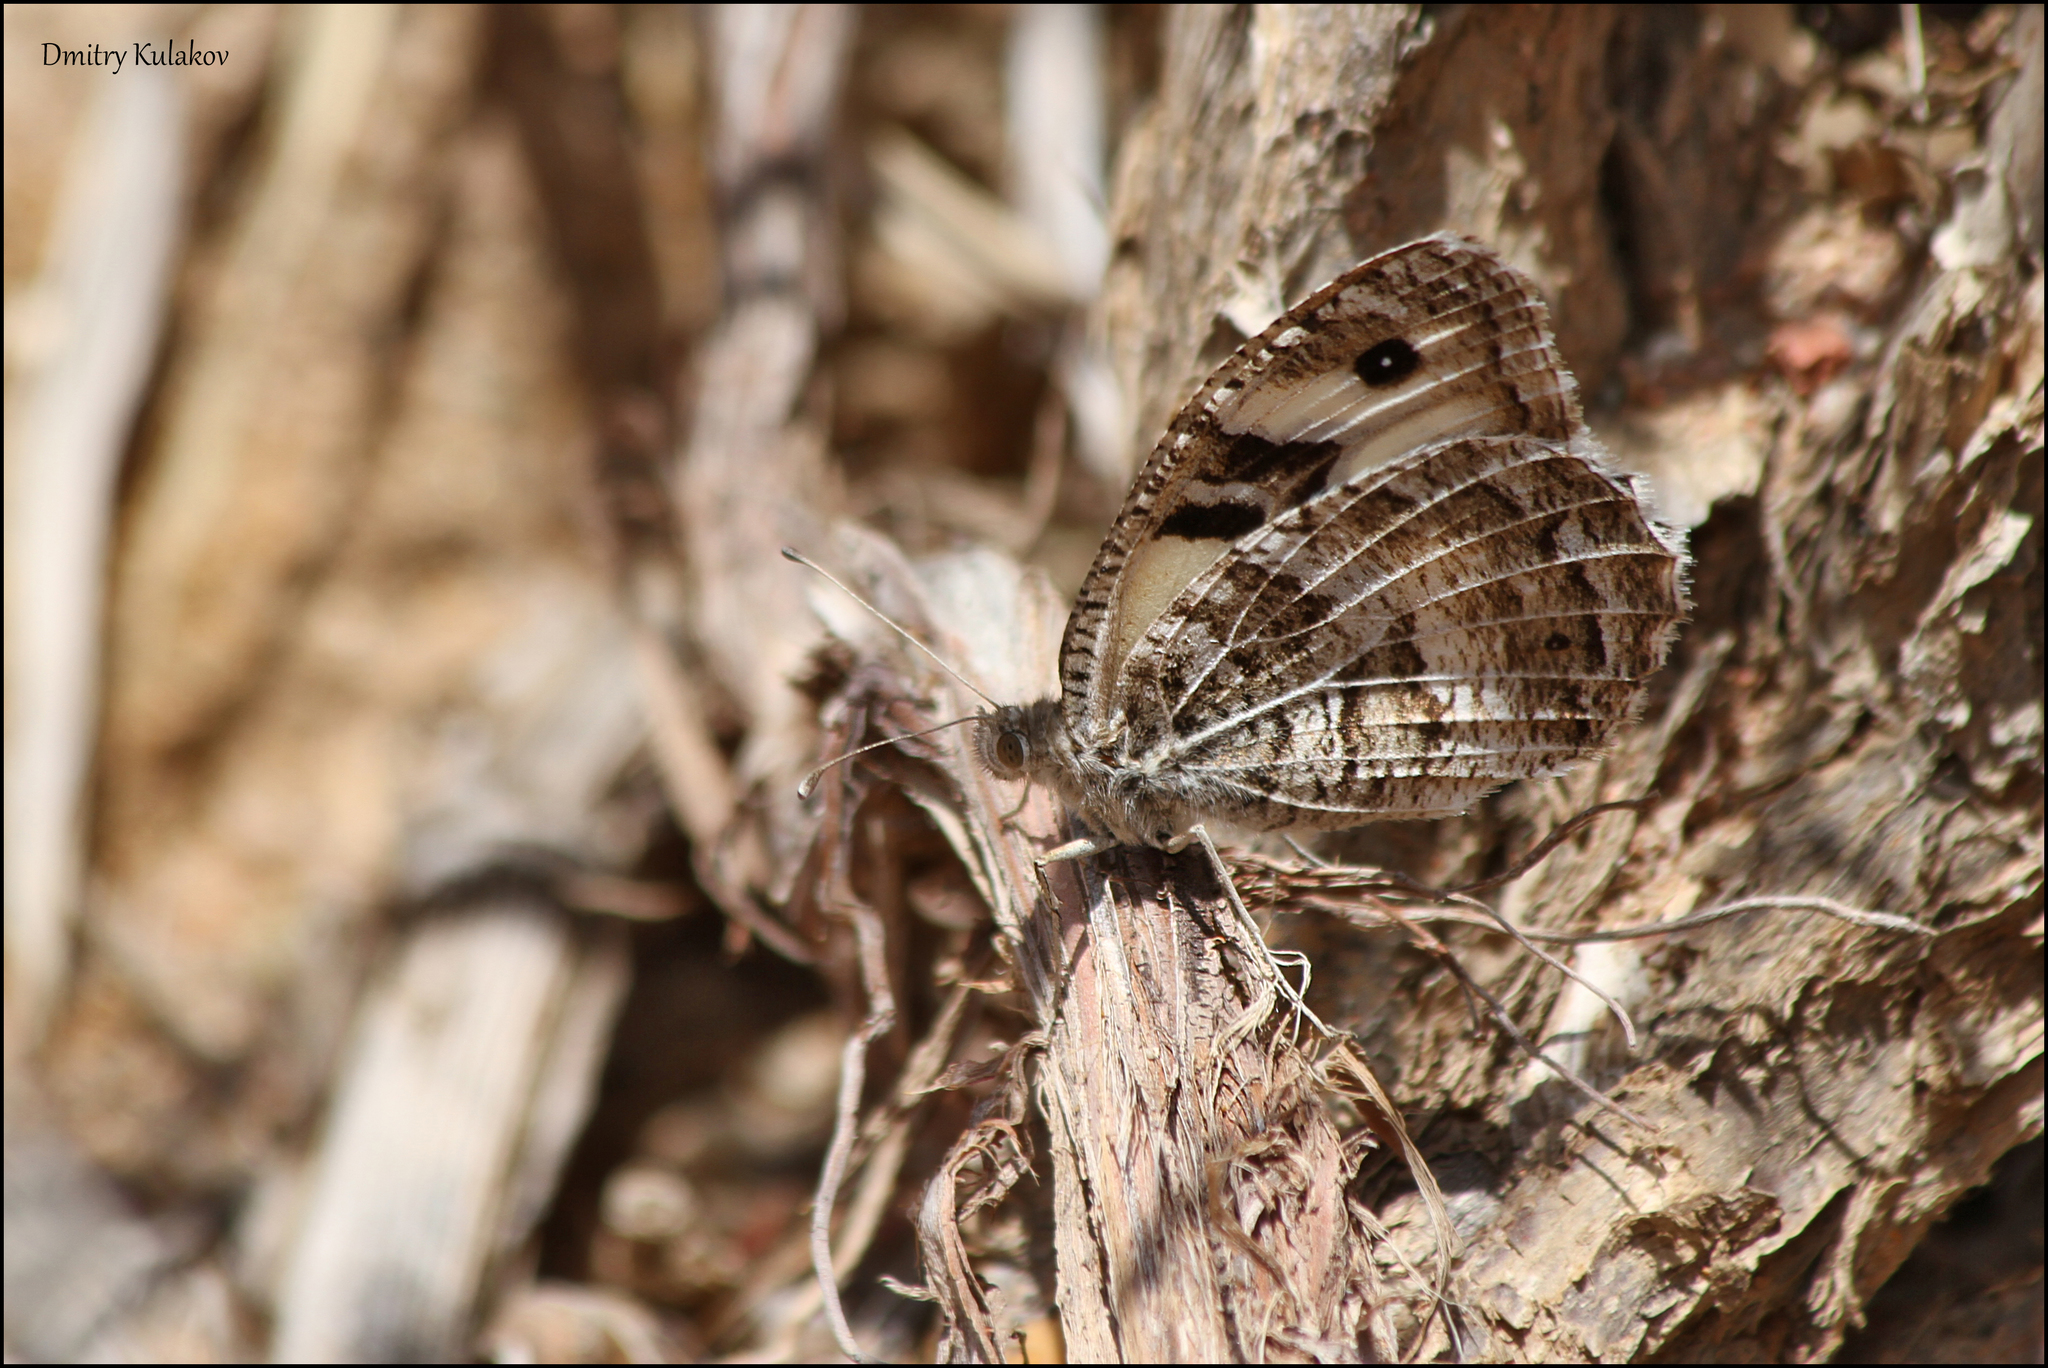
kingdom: Animalia
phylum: Arthropoda
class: Insecta
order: Lepidoptera
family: Nymphalidae
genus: Satyrus
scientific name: Satyrus Chazara heydenreichi
